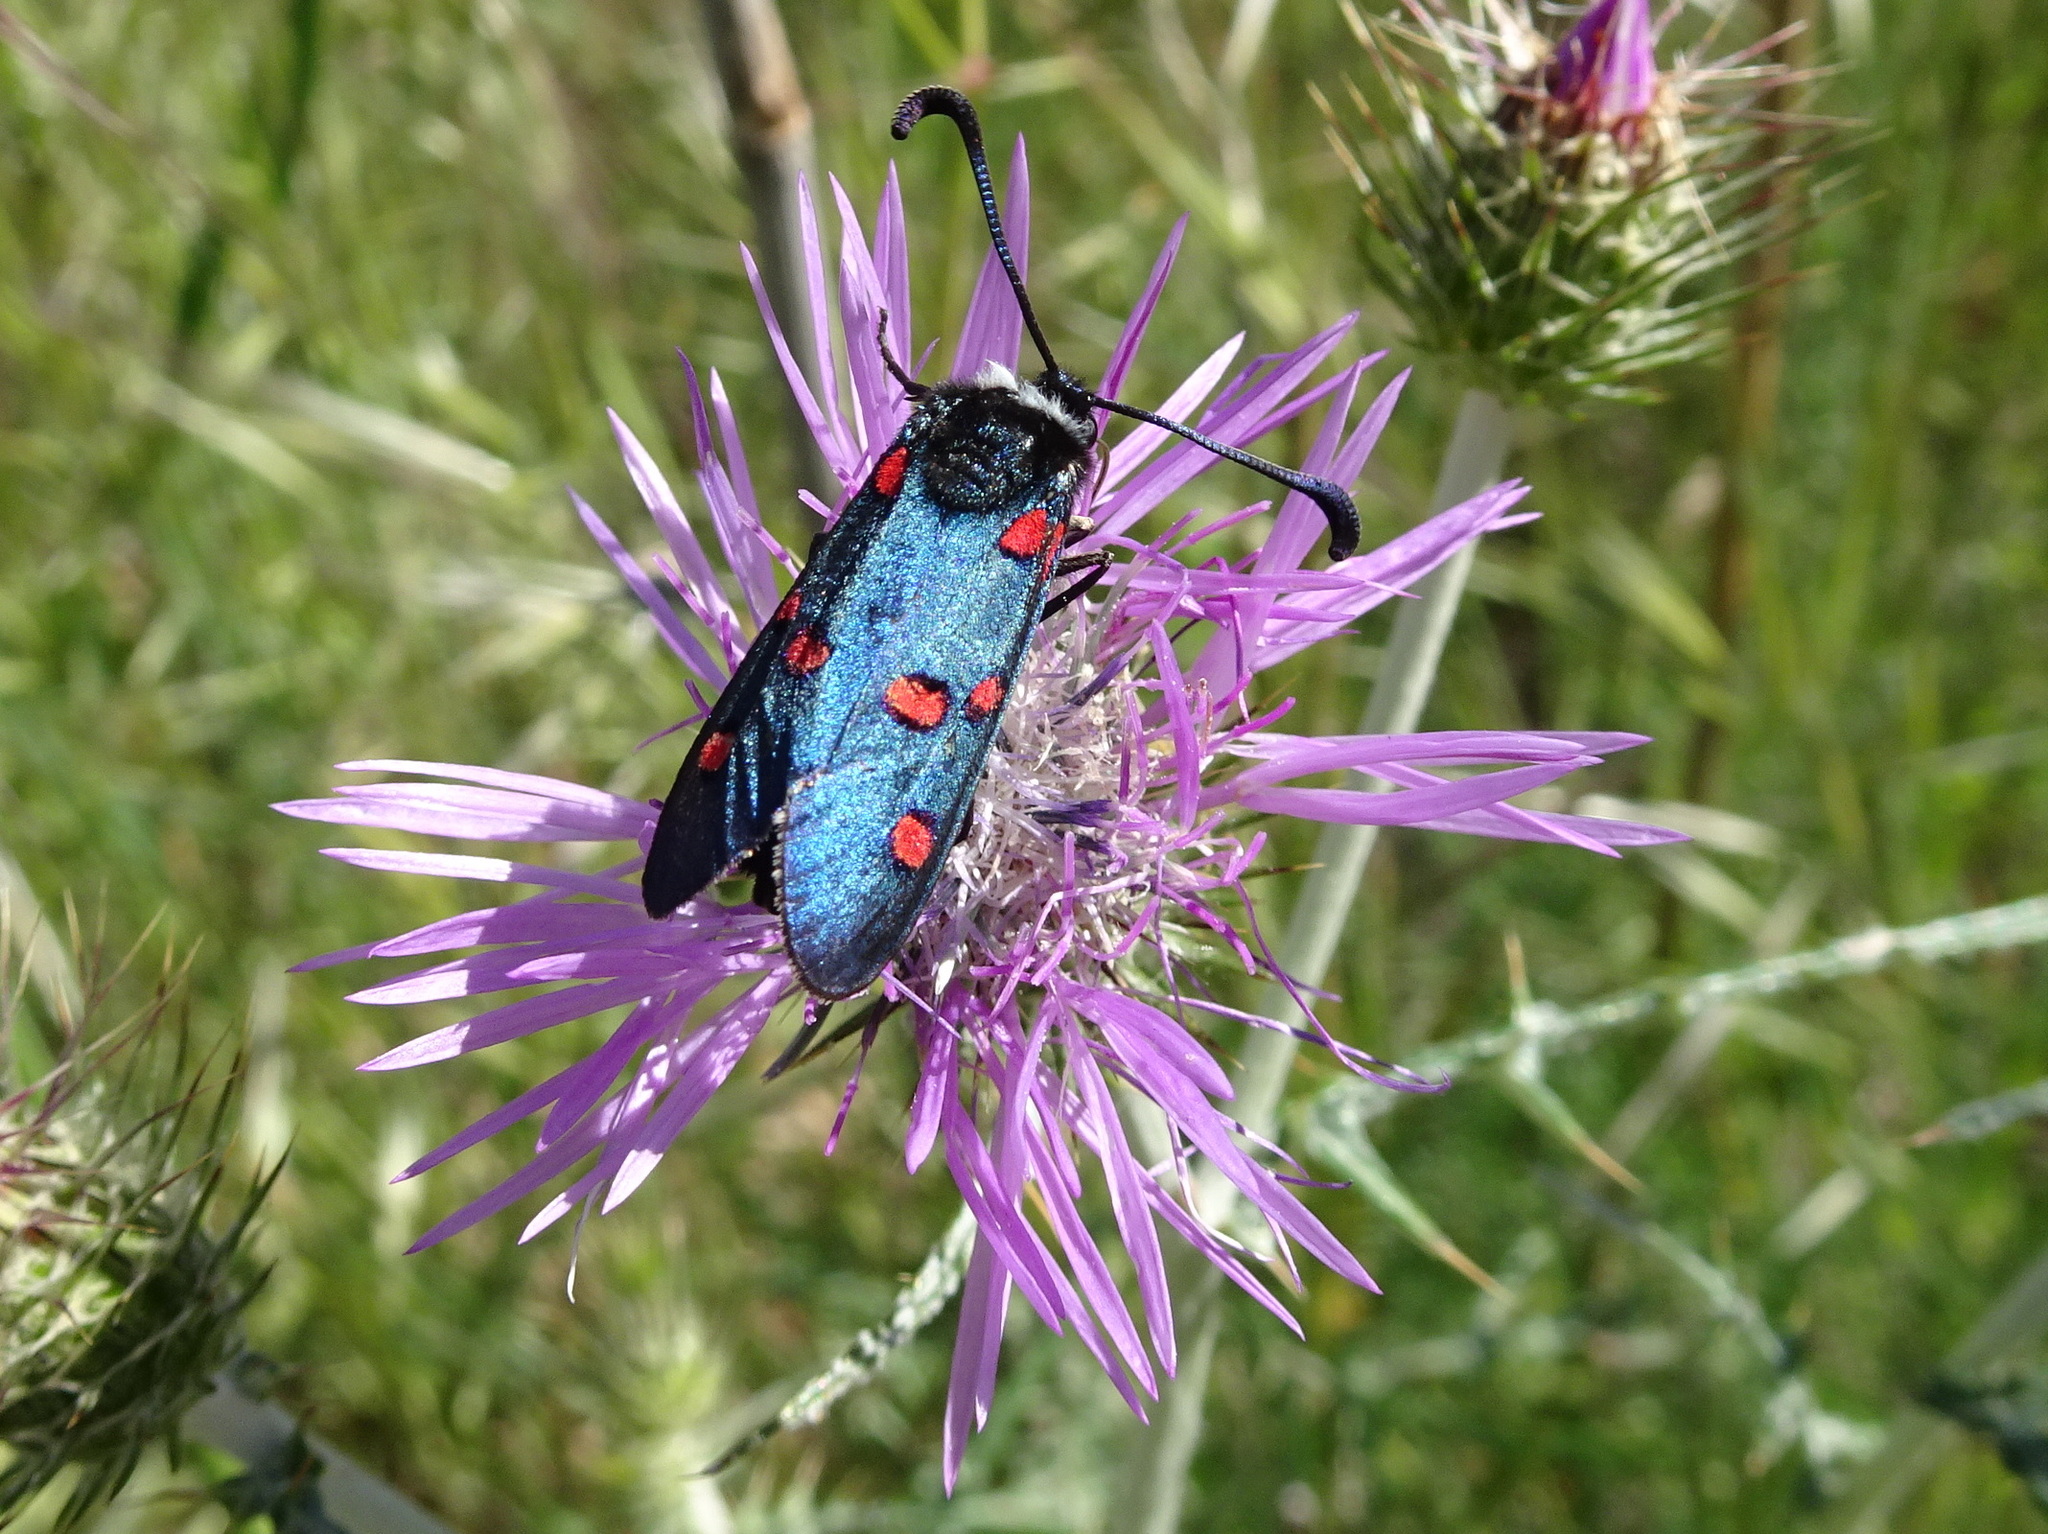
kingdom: Animalia
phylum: Arthropoda
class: Insecta
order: Lepidoptera
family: Zygaenidae
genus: Zygaena
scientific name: Zygaena lavandulae
